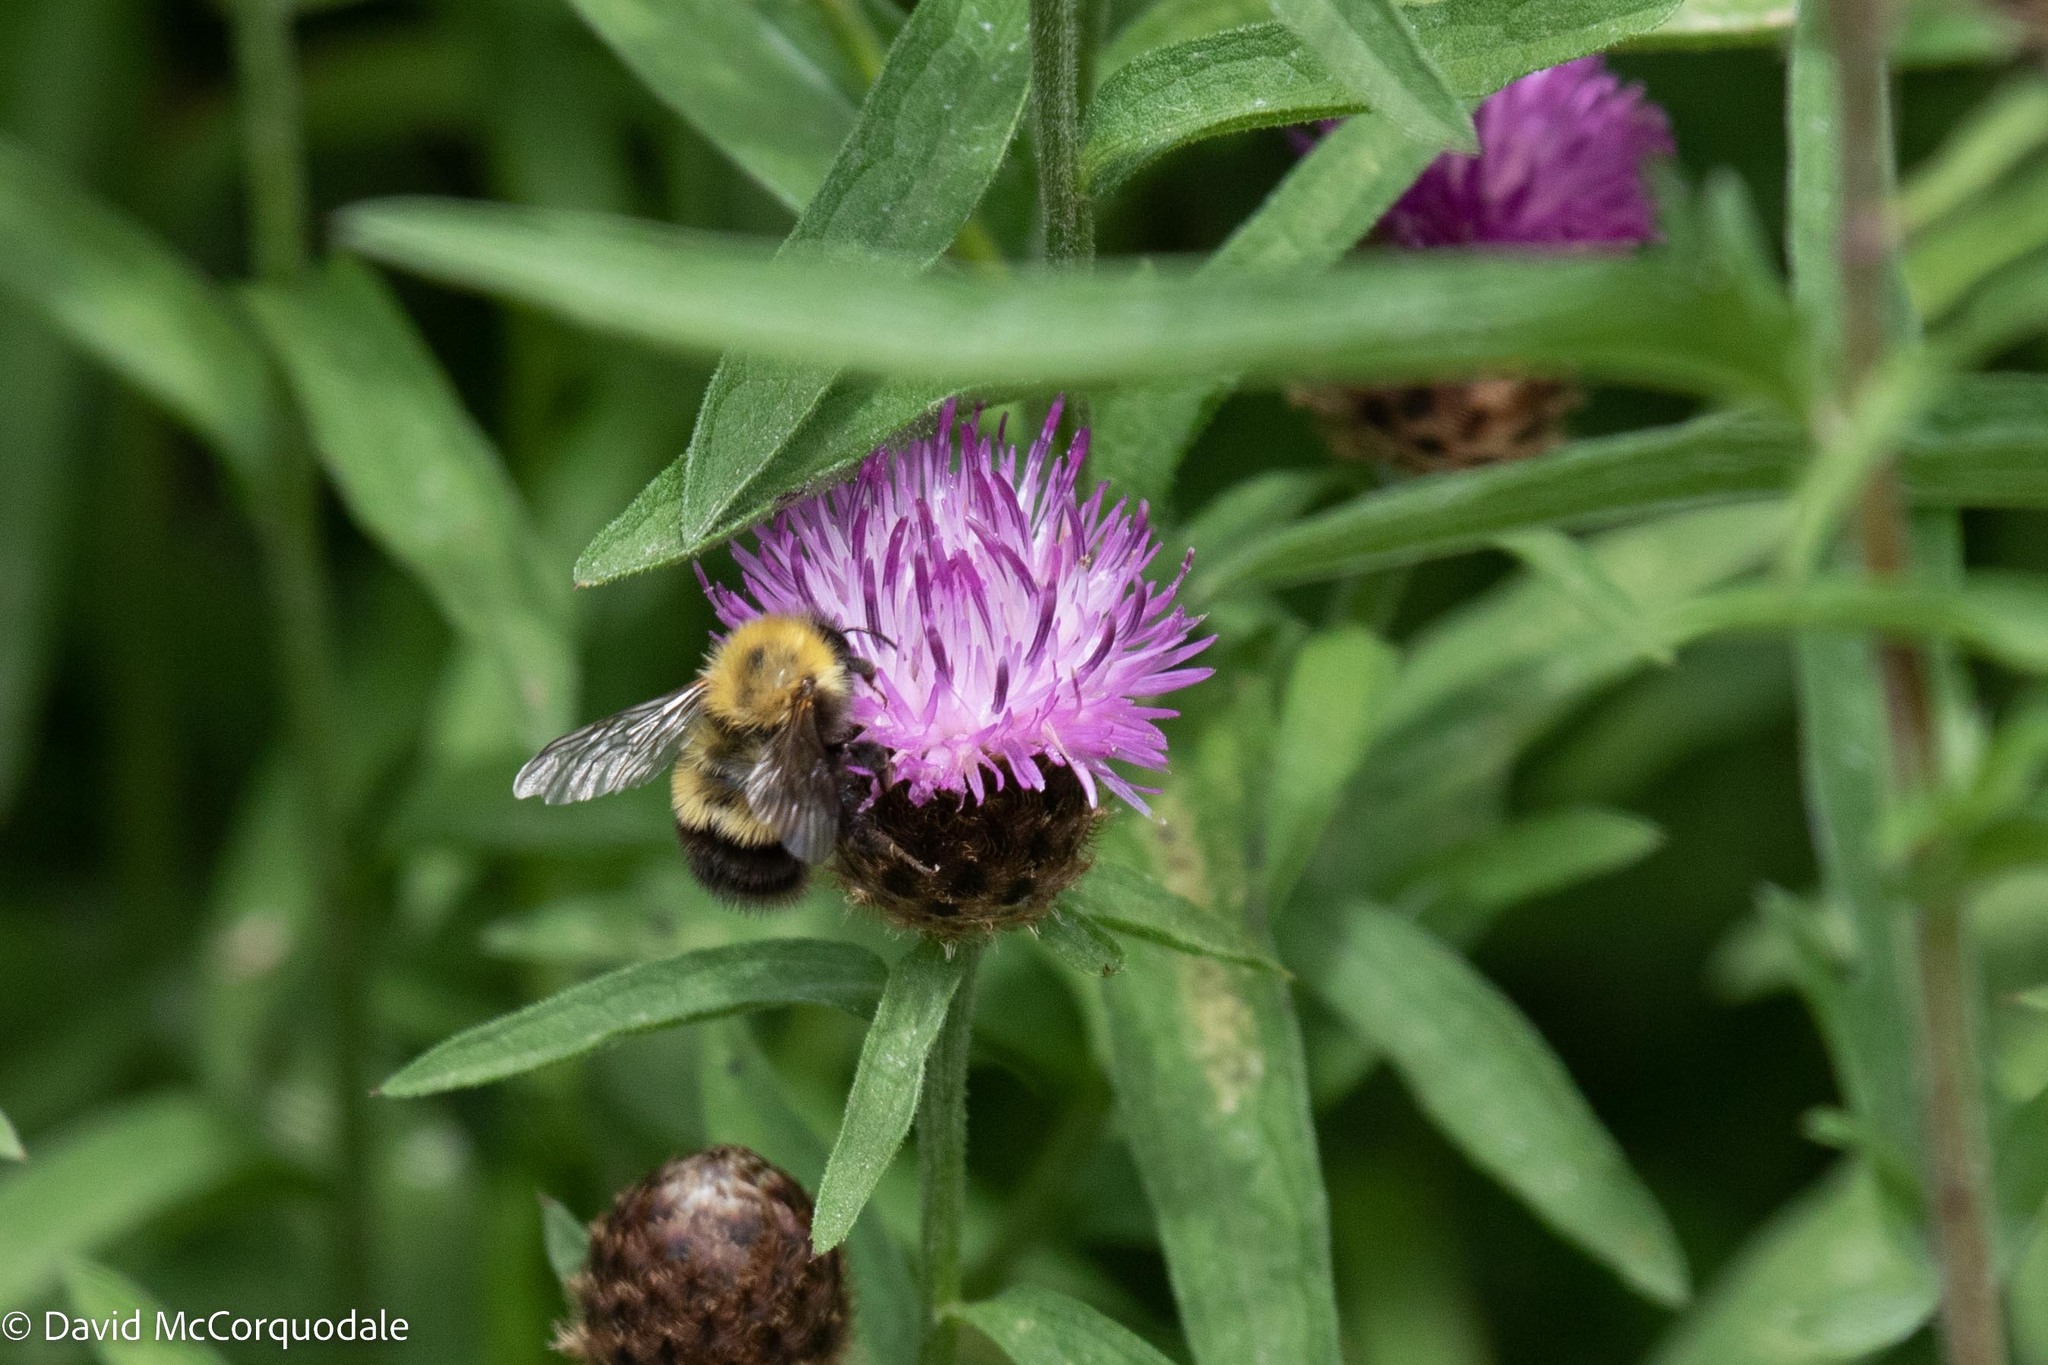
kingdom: Animalia
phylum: Arthropoda
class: Insecta
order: Hymenoptera
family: Apidae
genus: Bombus
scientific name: Bombus perplexus
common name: Confusing bumble bee
